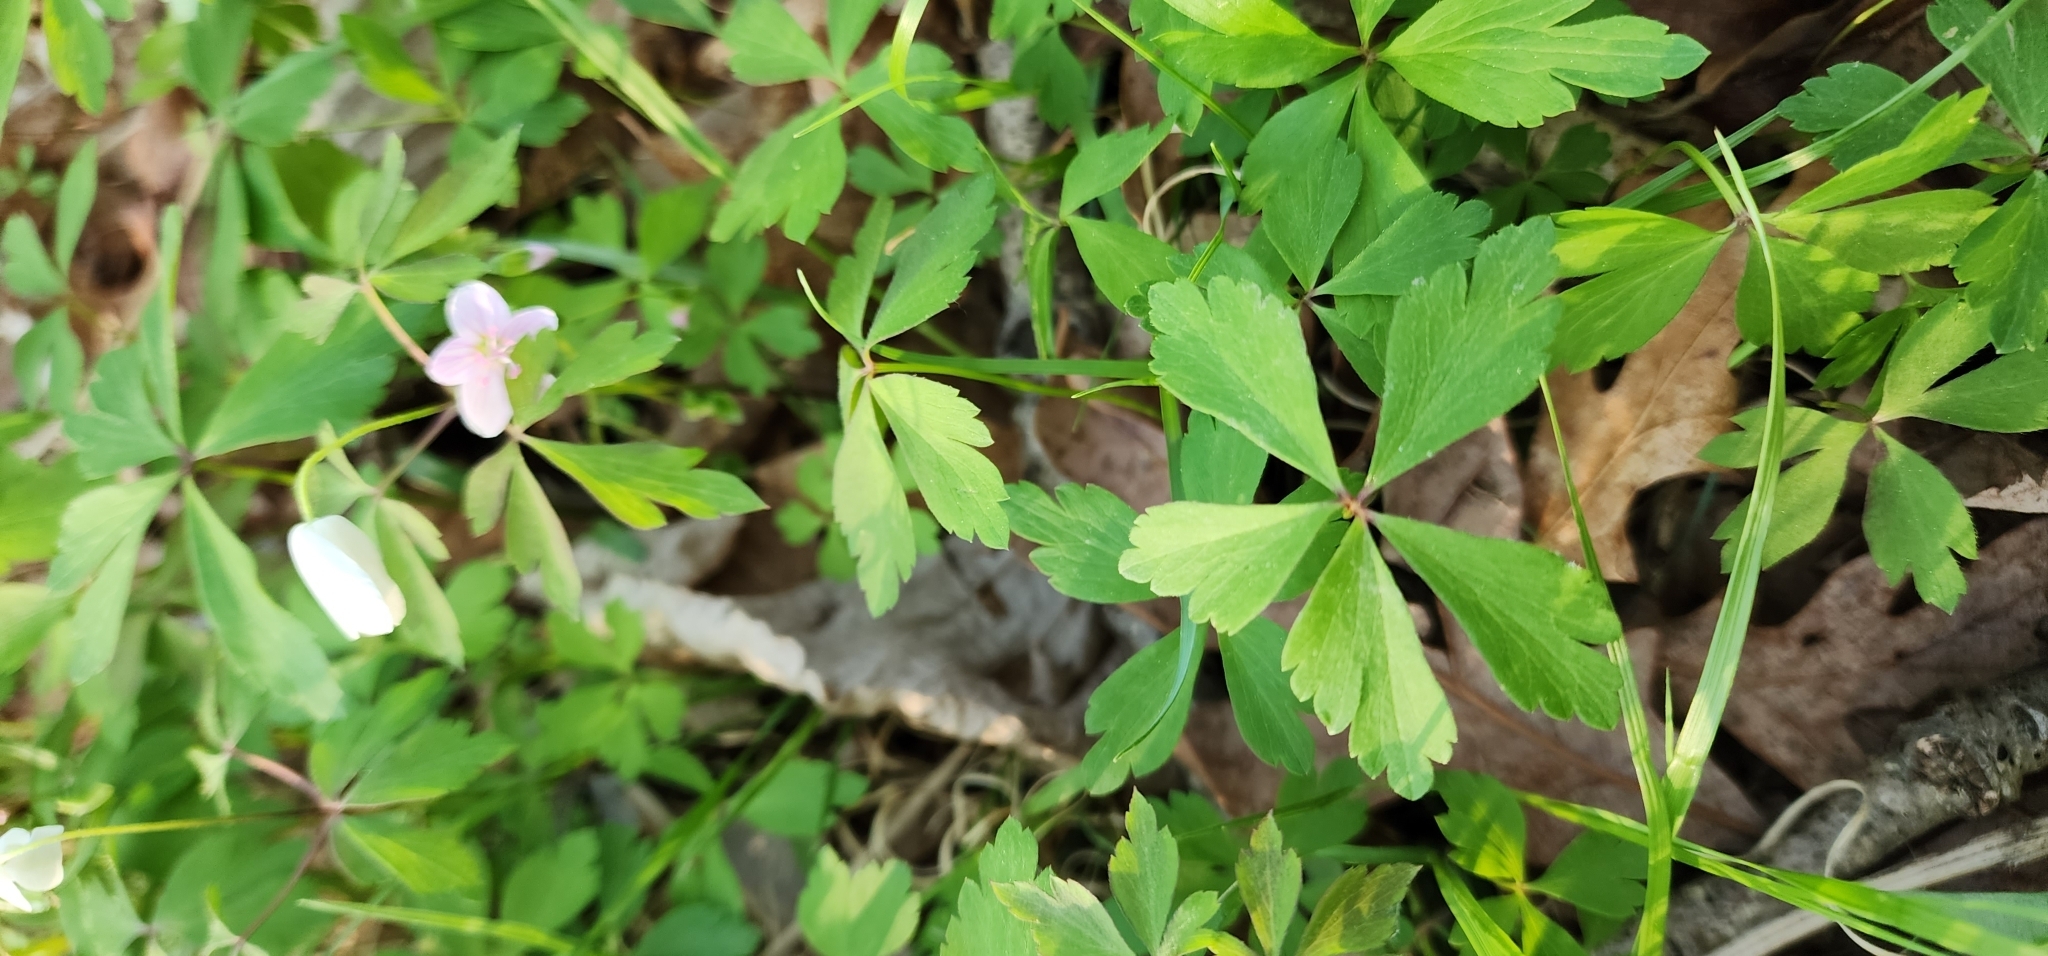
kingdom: Plantae
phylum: Tracheophyta
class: Magnoliopsida
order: Ranunculales
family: Ranunculaceae
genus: Anemone
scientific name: Anemone quinquefolia
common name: Wood anemone
